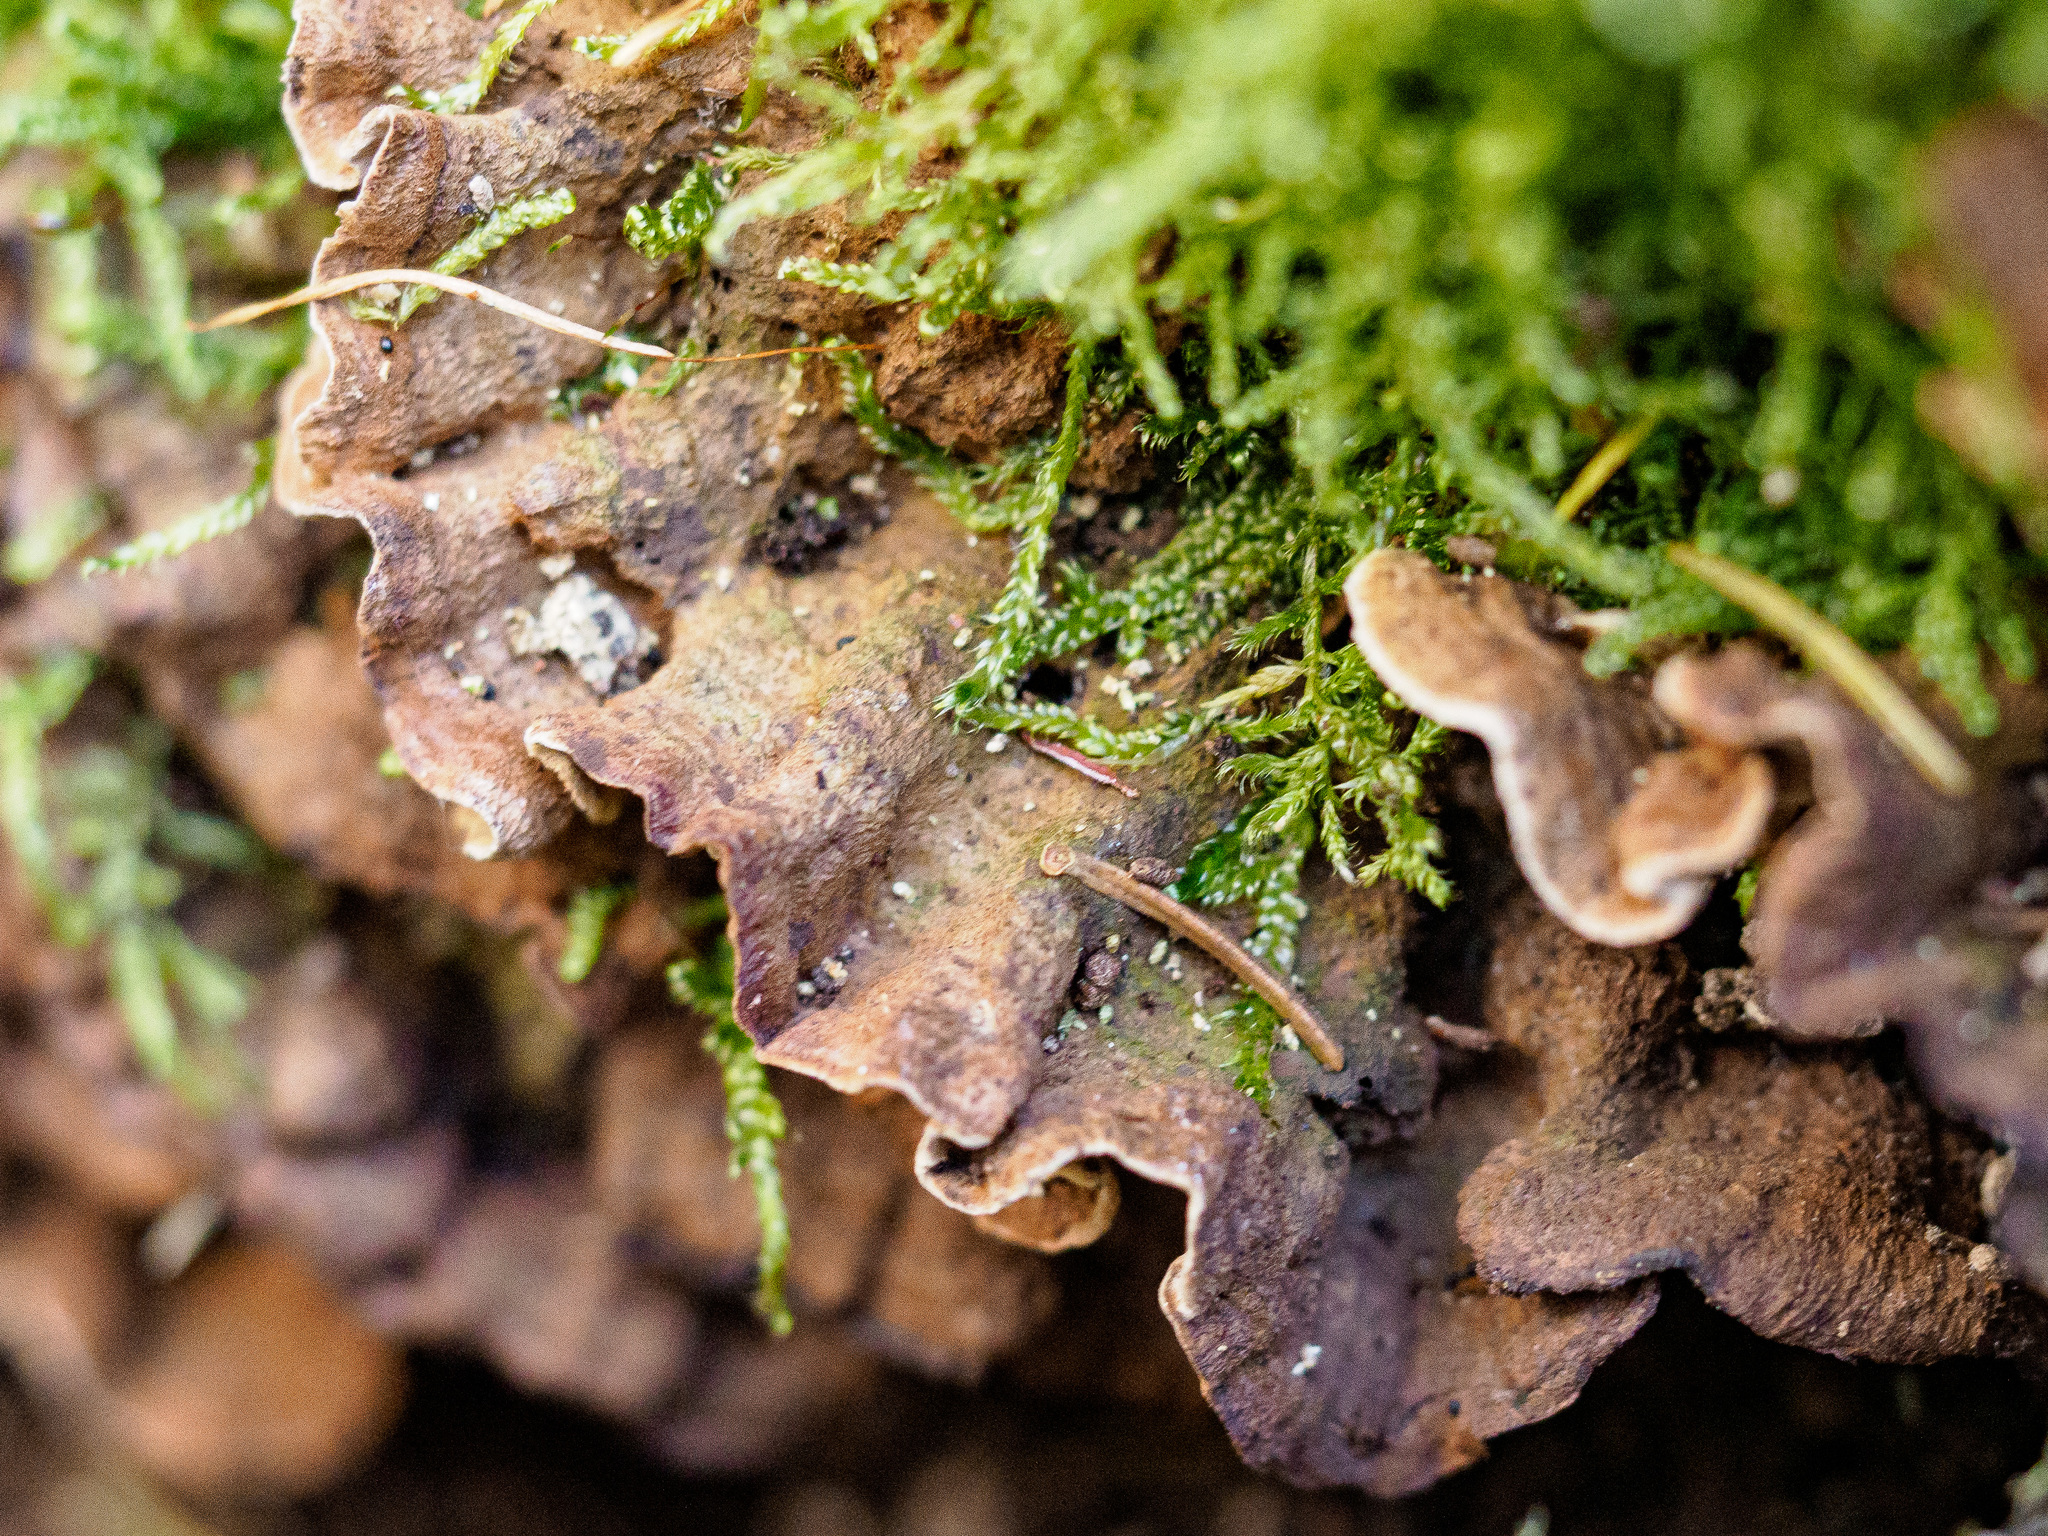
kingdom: Fungi
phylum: Basidiomycota
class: Agaricomycetes
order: Russulales
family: Echinodontiaceae
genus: Amylostereum
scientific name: Amylostereum areolatum
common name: White rot fungus
